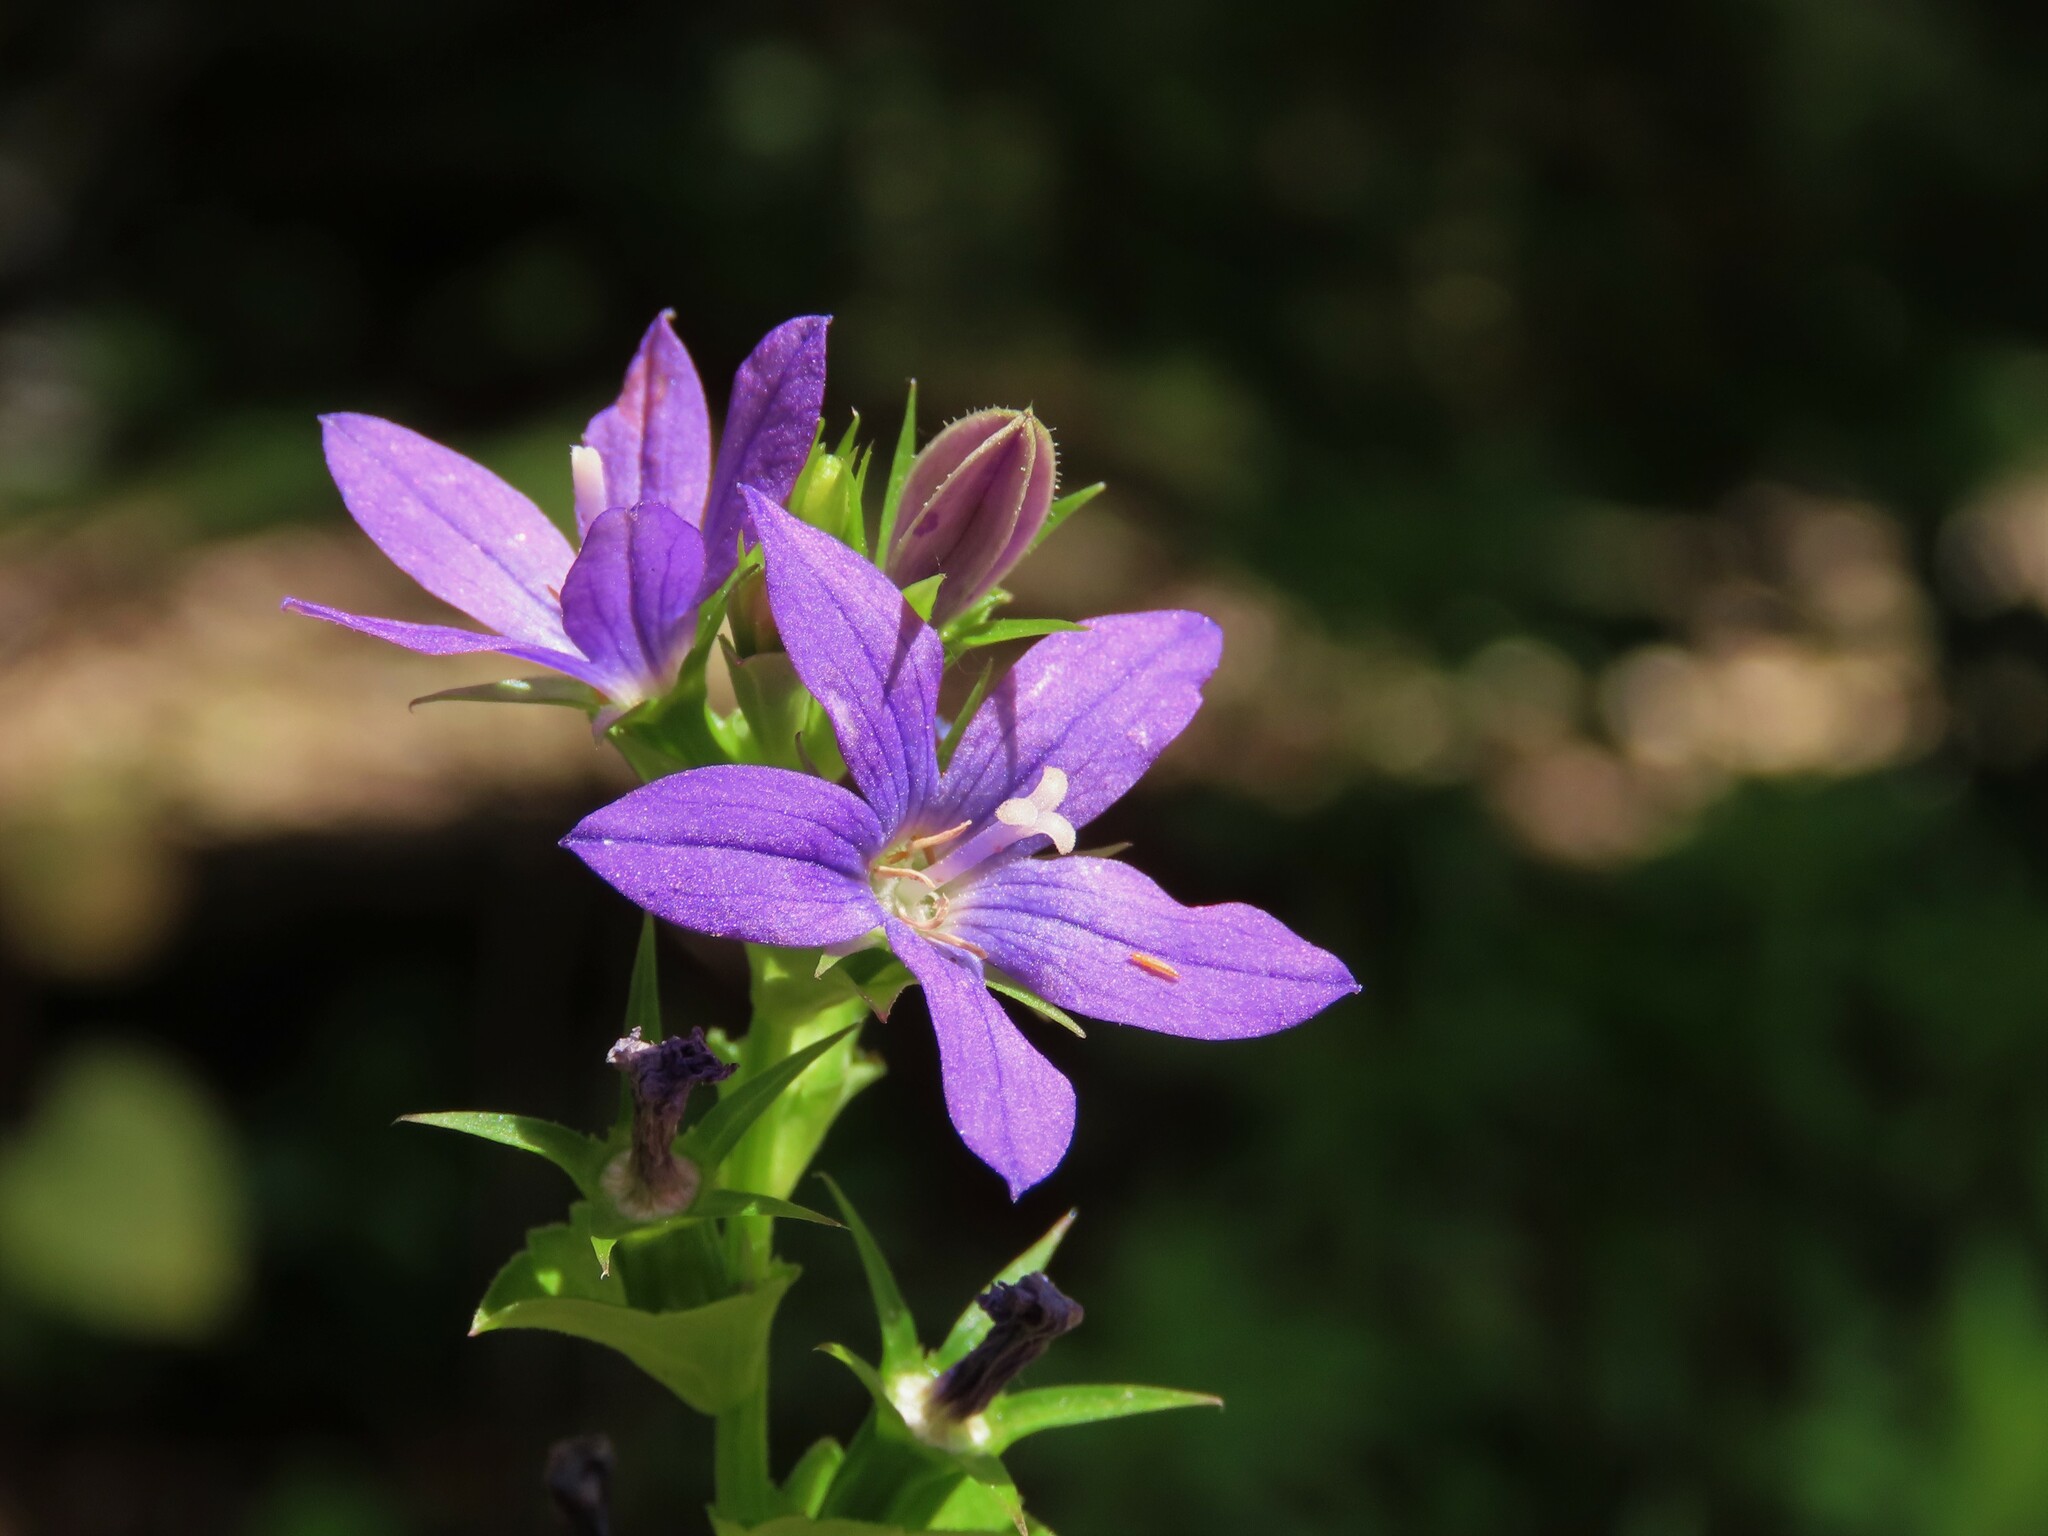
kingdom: Plantae
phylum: Tracheophyta
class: Magnoliopsida
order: Asterales
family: Campanulaceae
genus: Triodanis
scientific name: Triodanis perfoliata
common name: Clasping venus' looking-glass
